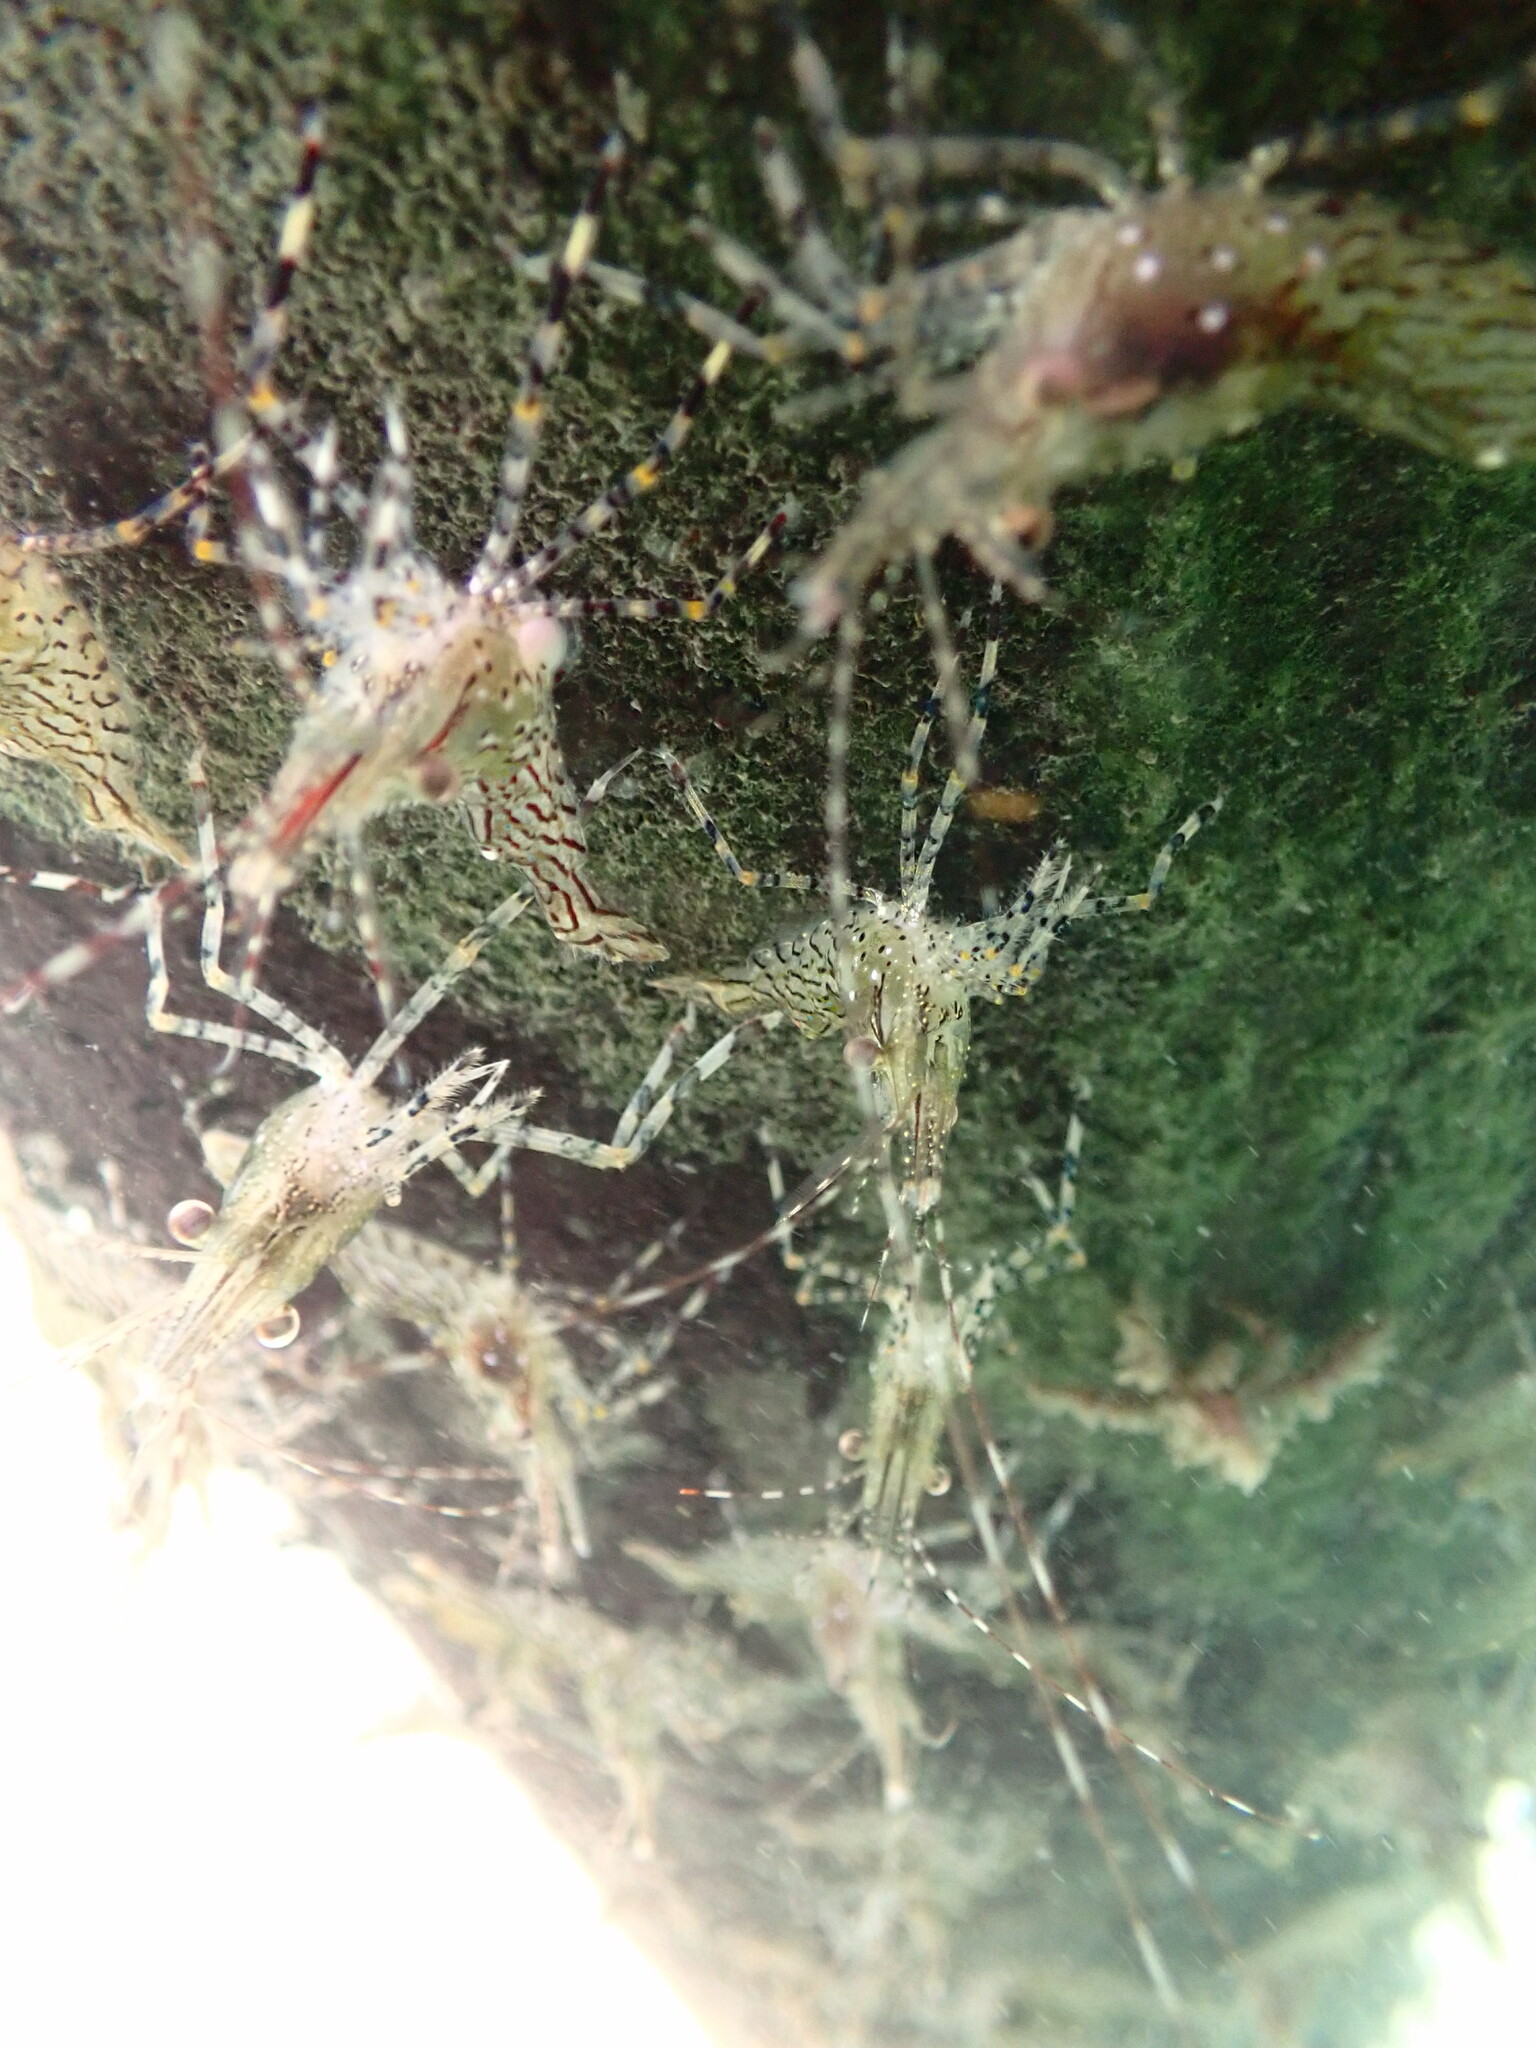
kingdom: Animalia
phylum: Arthropoda
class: Malacostraca
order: Decapoda
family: Pandalidae
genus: Pandalus
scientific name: Pandalus danae
